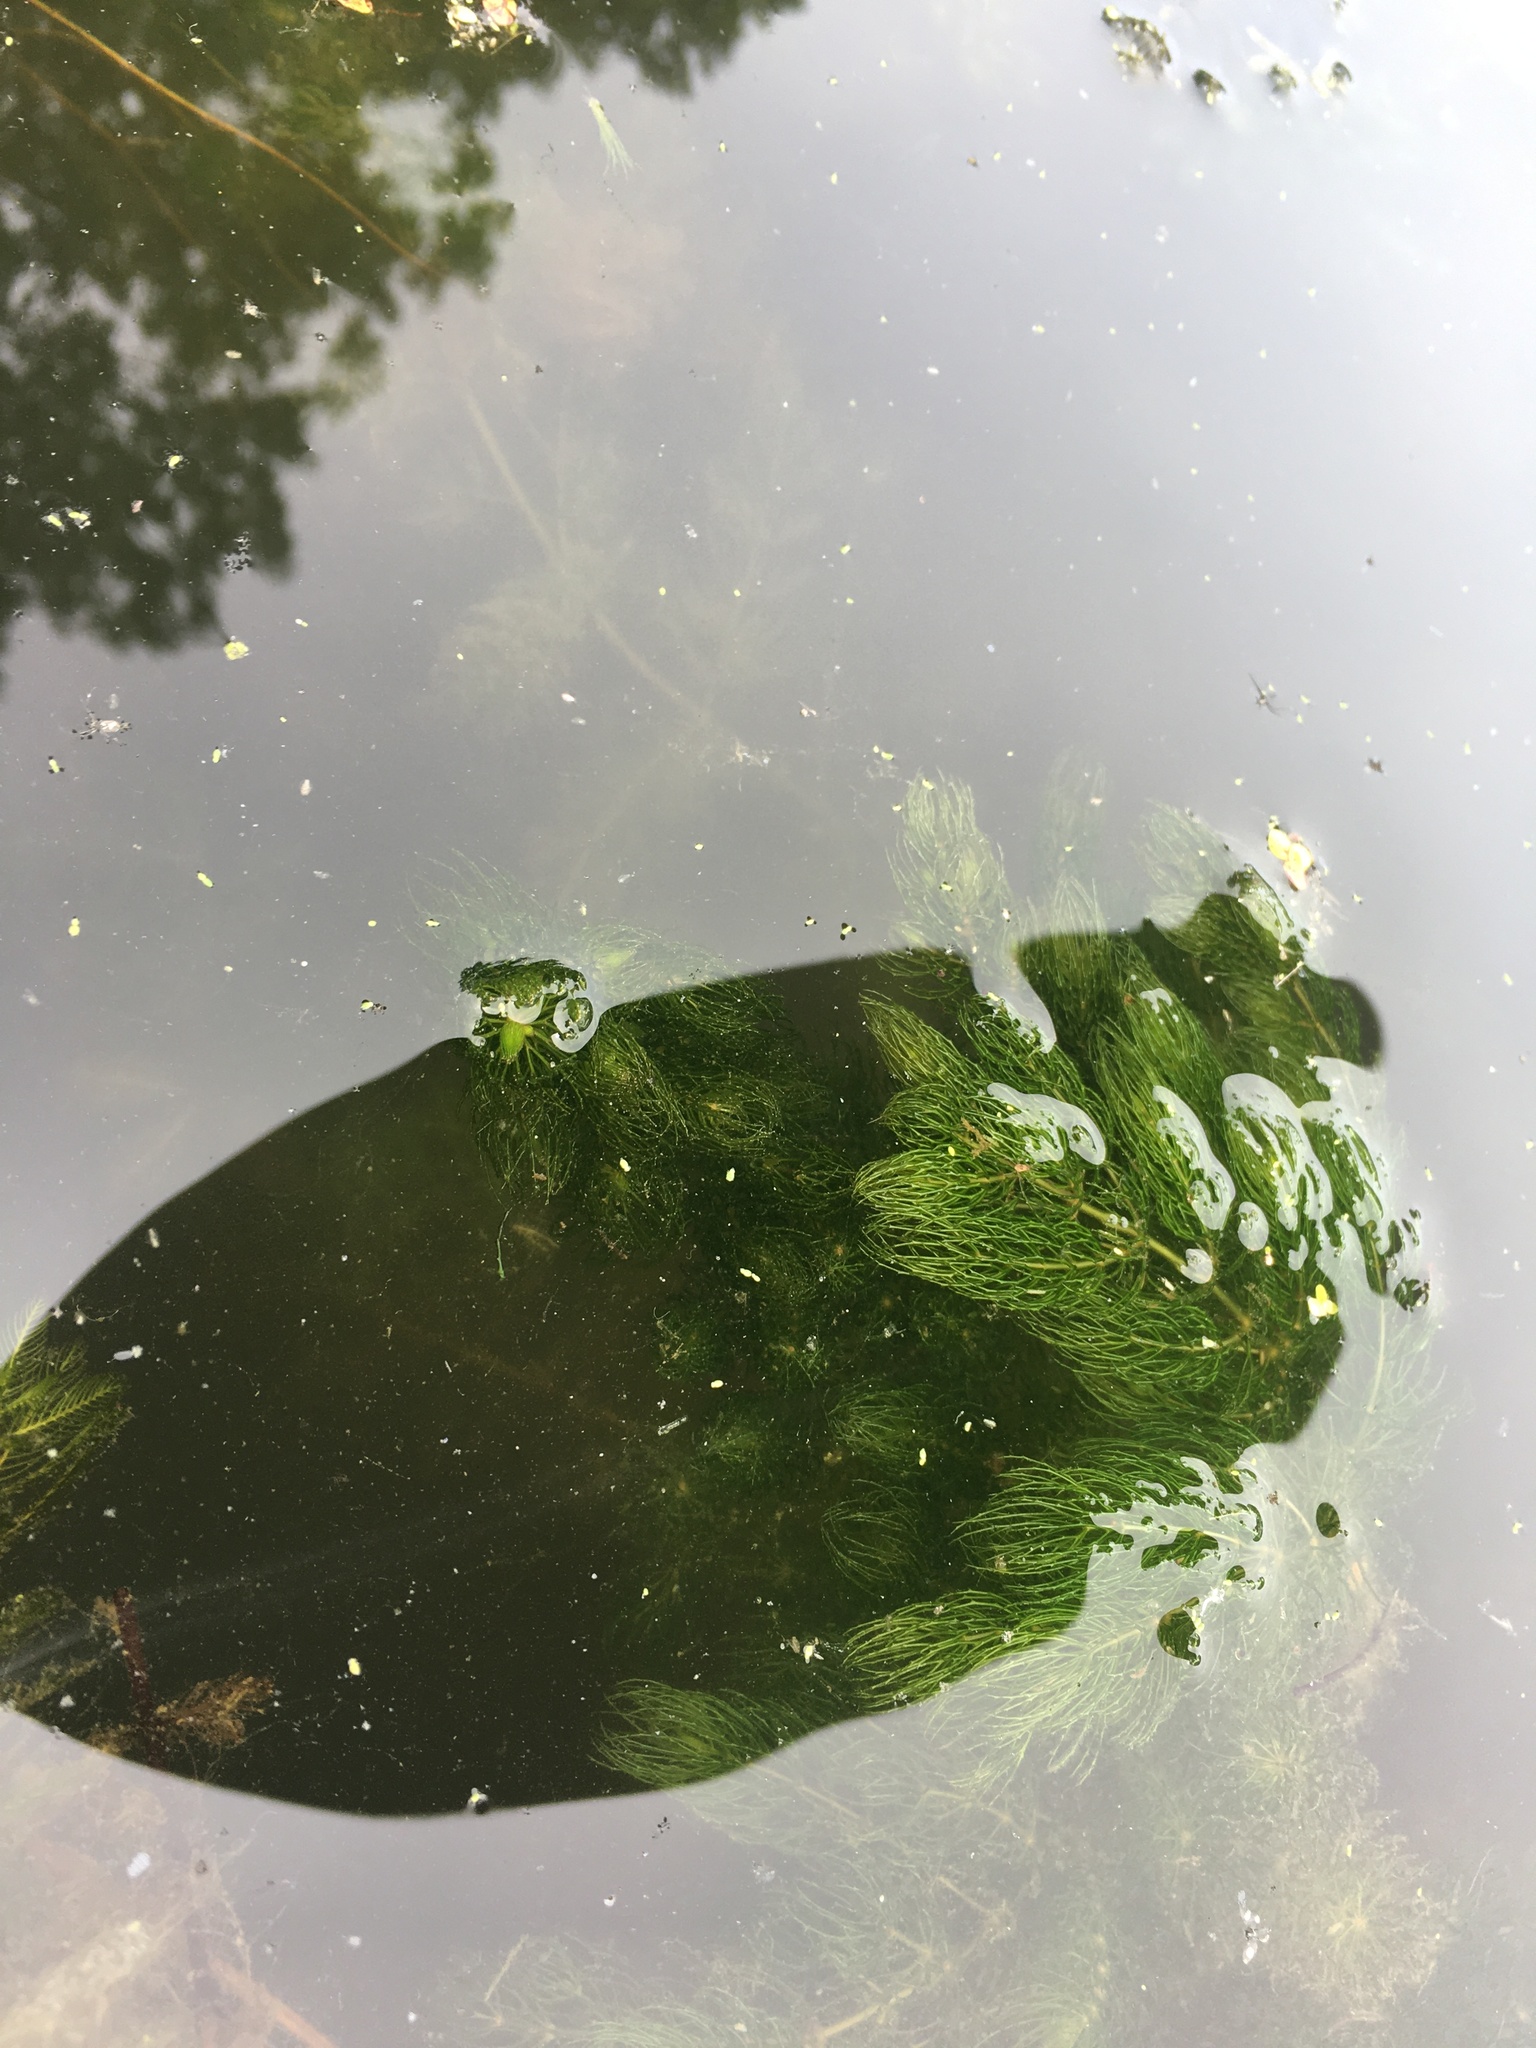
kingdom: Plantae
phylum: Tracheophyta
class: Magnoliopsida
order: Ceratophyllales
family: Ceratophyllaceae
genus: Ceratophyllum
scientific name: Ceratophyllum demersum
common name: Rigid hornwort
